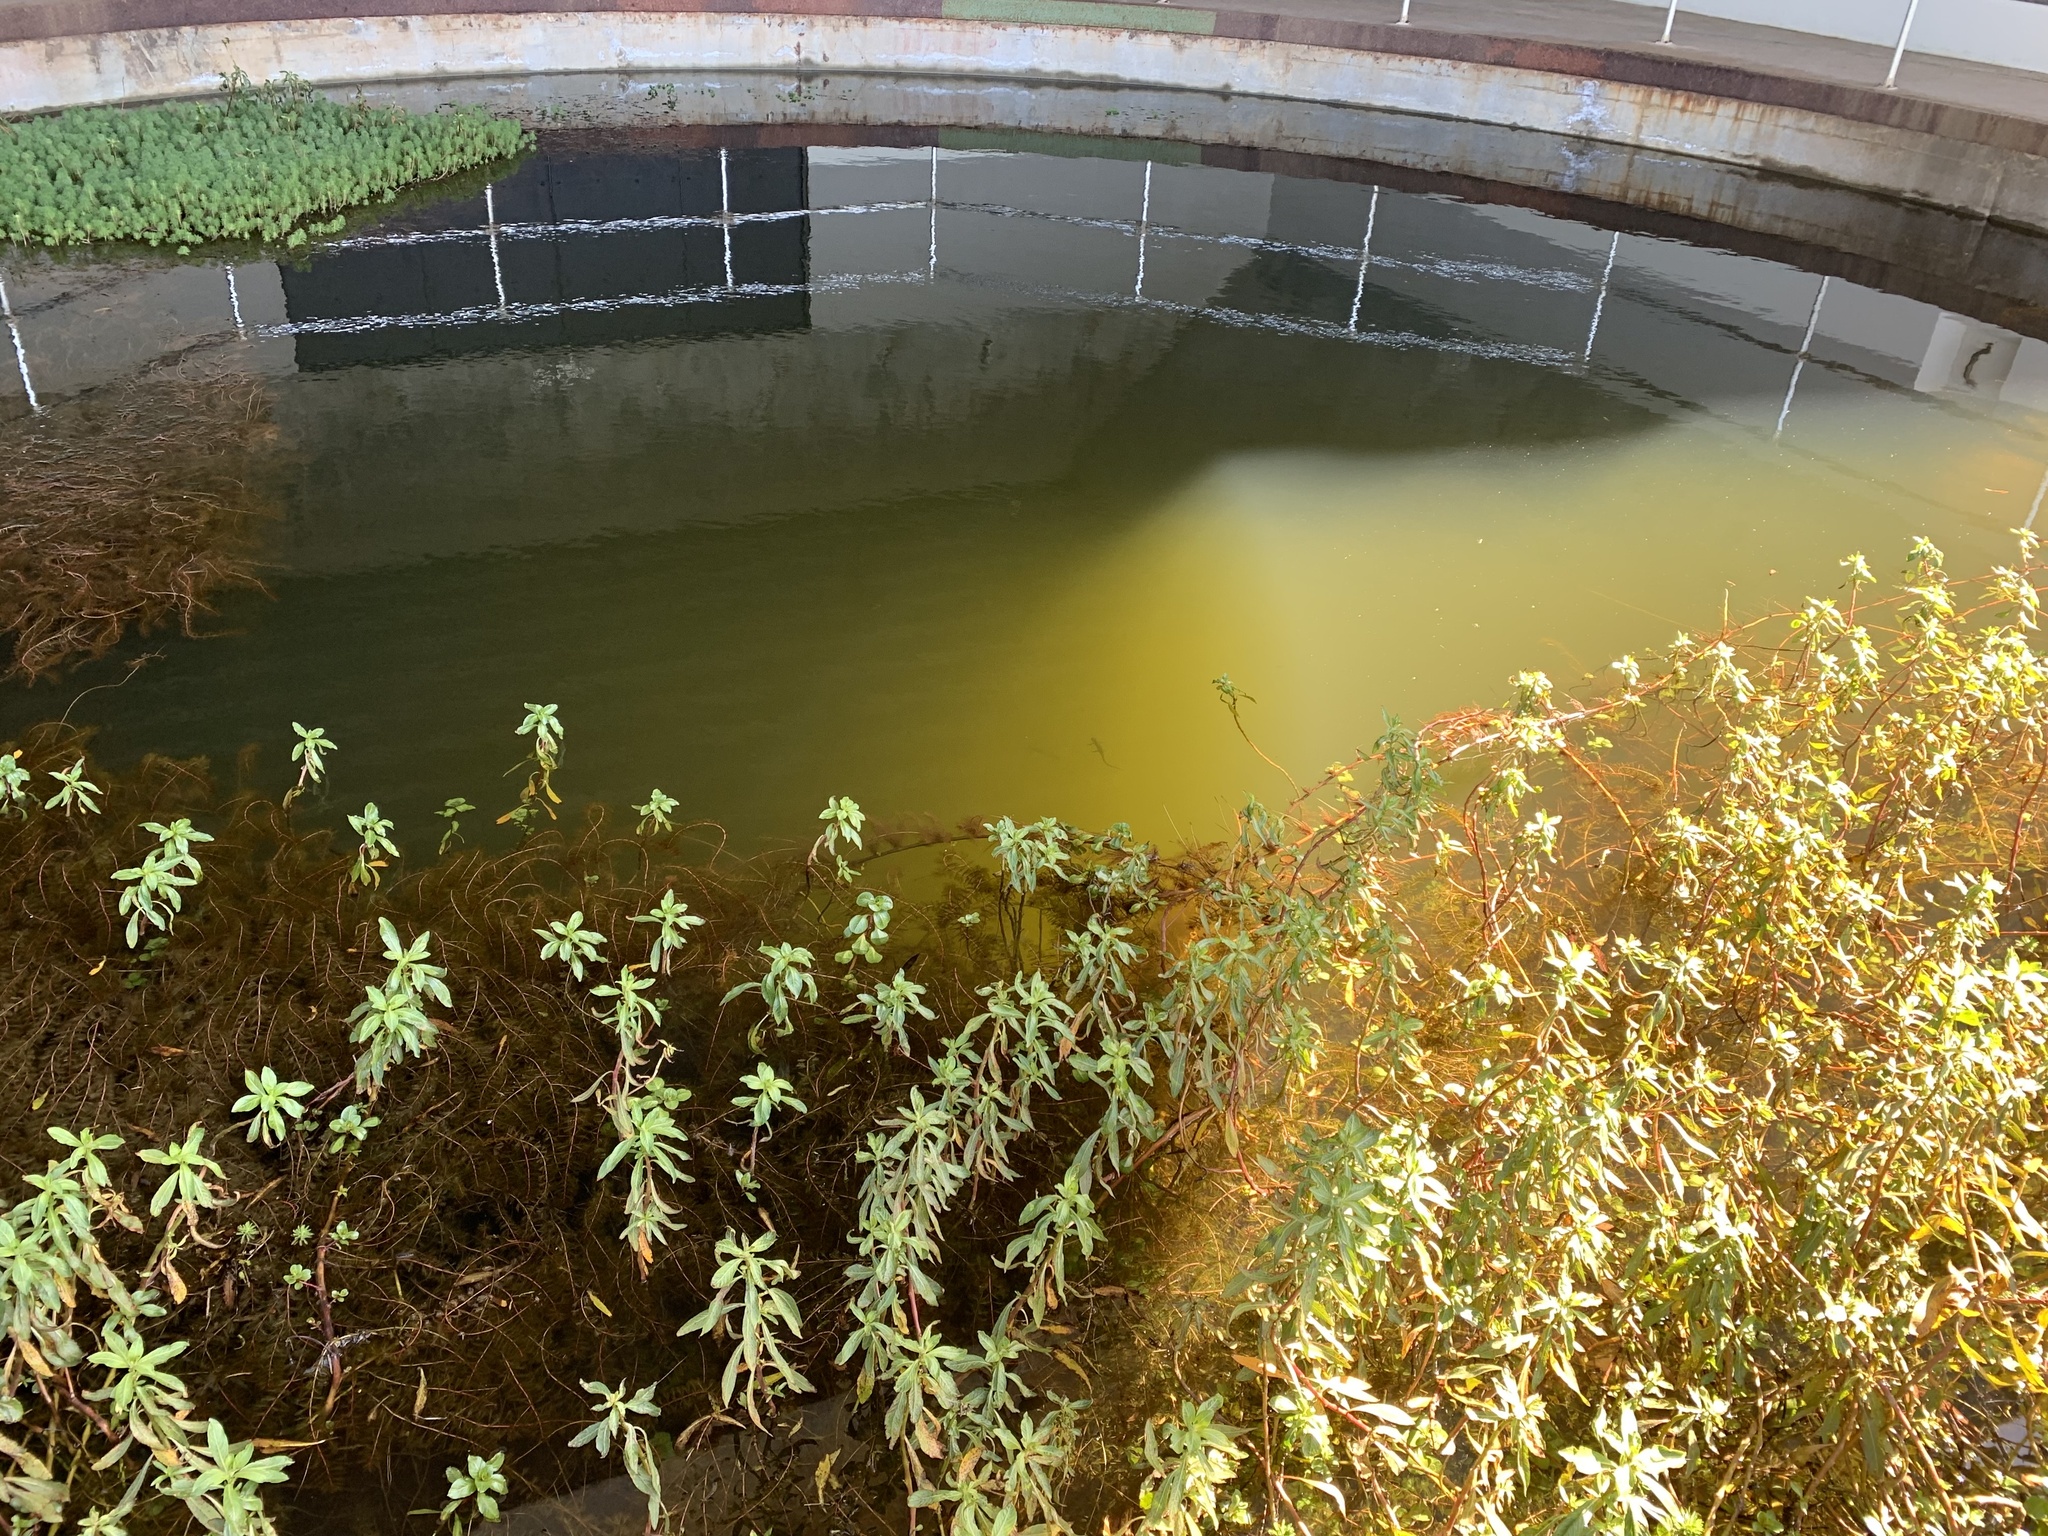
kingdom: Animalia
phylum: Chordata
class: Amphibia
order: Caudata
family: Salamandridae
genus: Taricha
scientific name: Taricha torosa
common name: California newt
